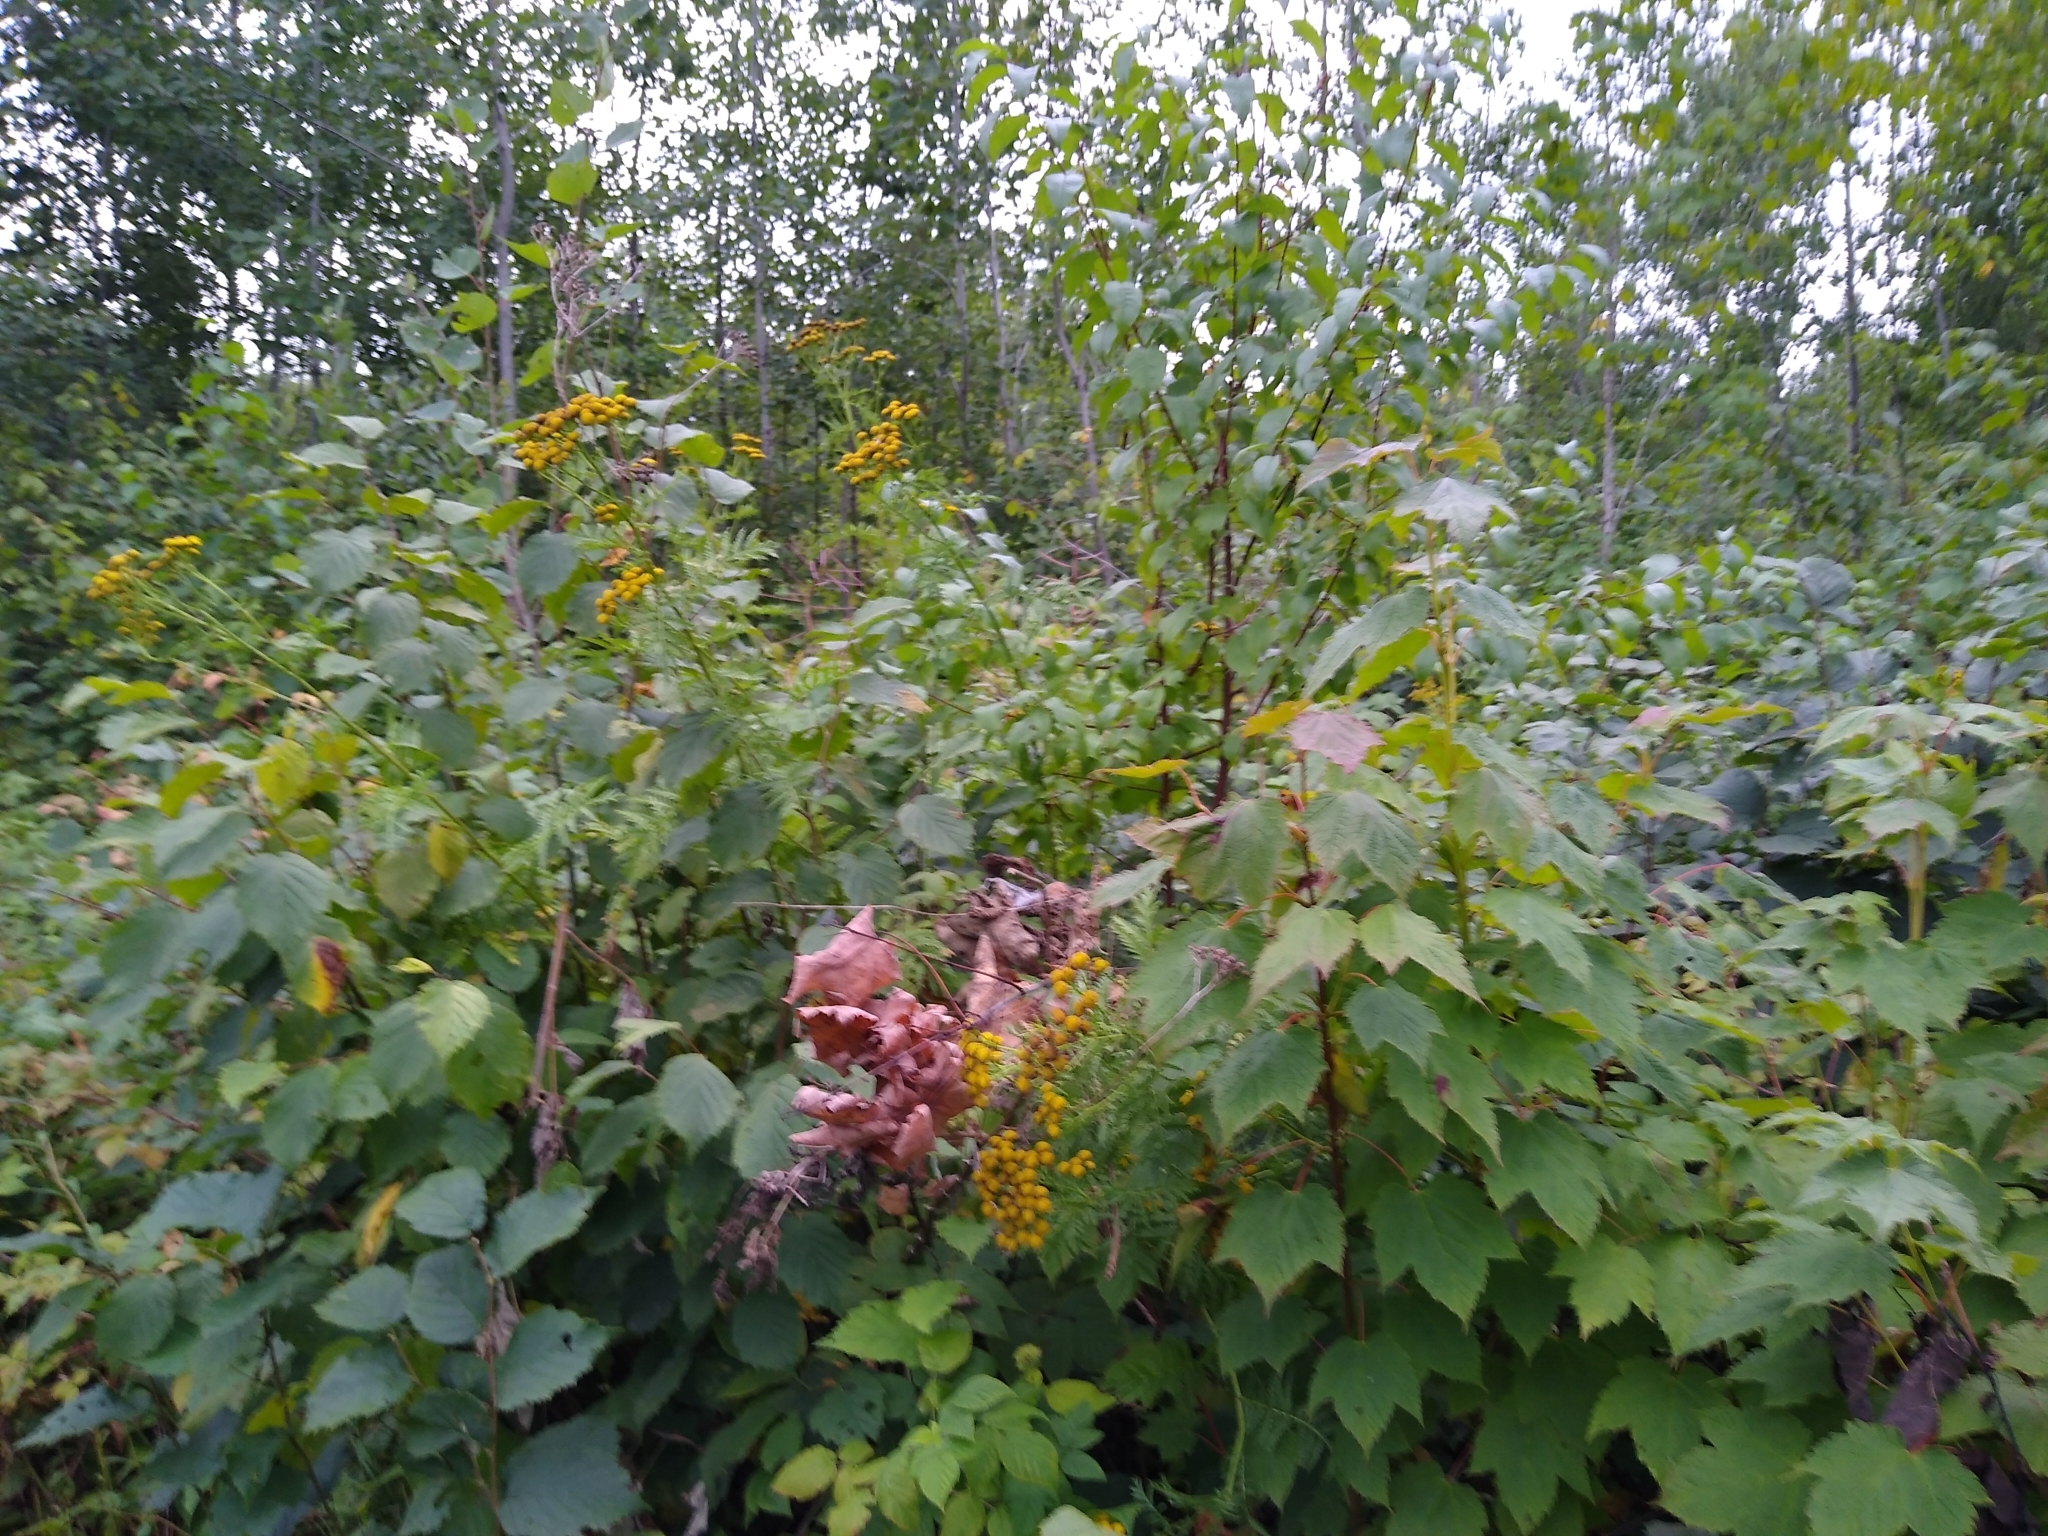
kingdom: Plantae
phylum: Tracheophyta
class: Magnoliopsida
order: Asterales
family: Asteraceae
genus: Tanacetum
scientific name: Tanacetum vulgare
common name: Common tansy
